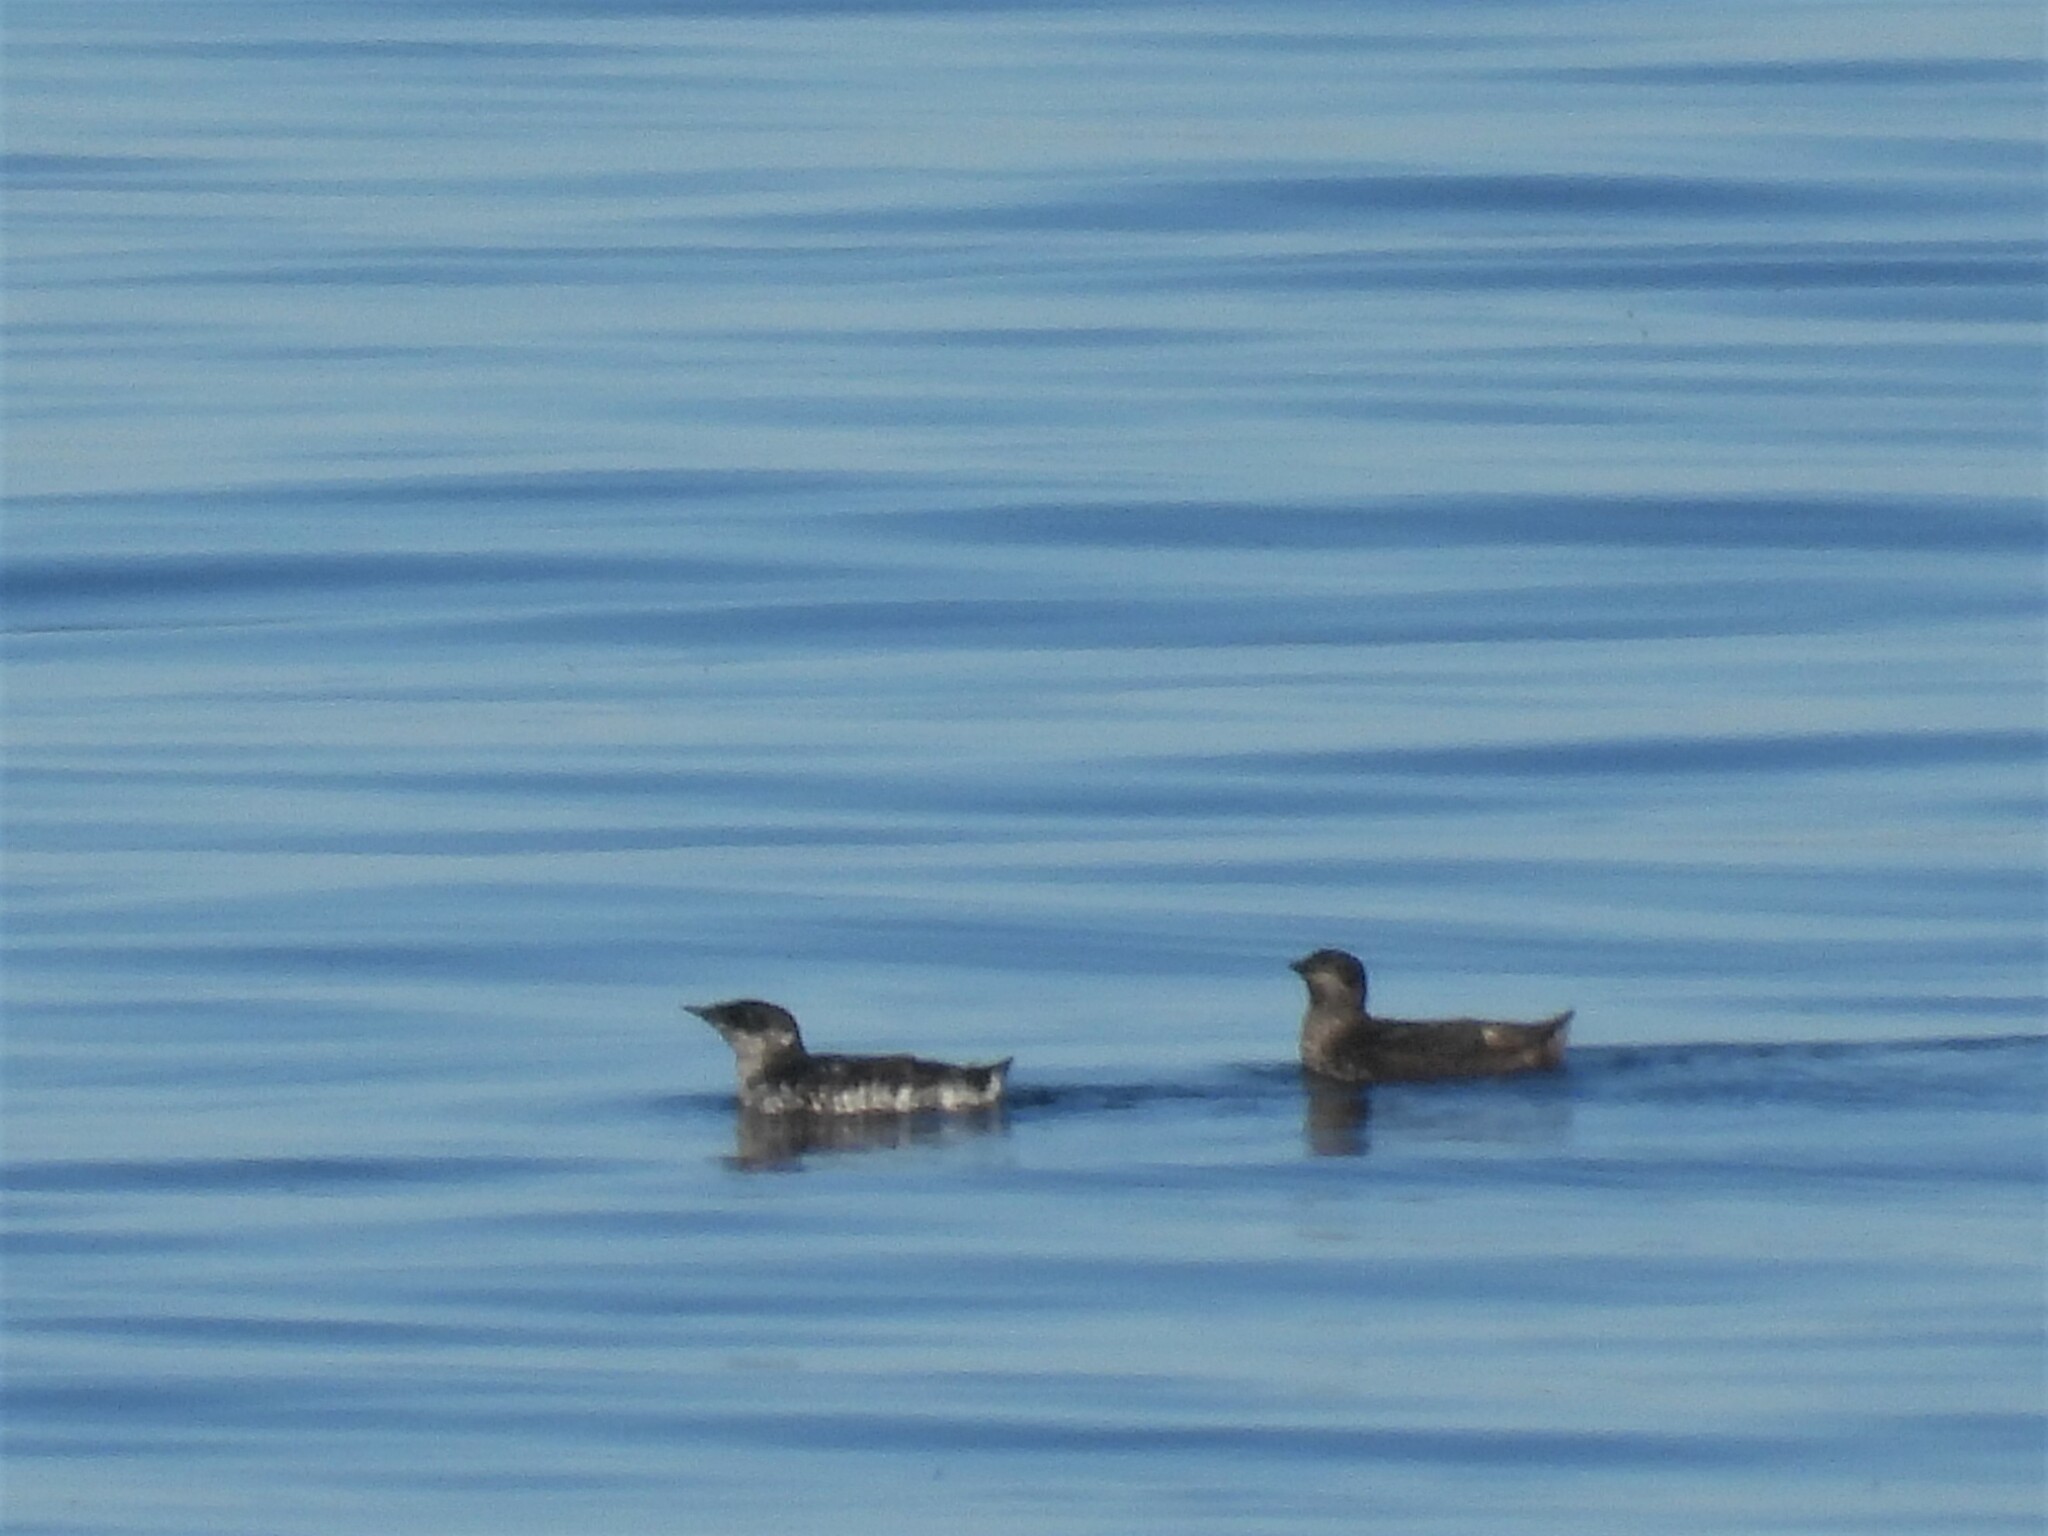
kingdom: Animalia
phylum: Chordata
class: Aves
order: Charadriiformes
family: Alcidae
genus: Brachyramphus
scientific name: Brachyramphus marmoratus
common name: Marbled murrelet
